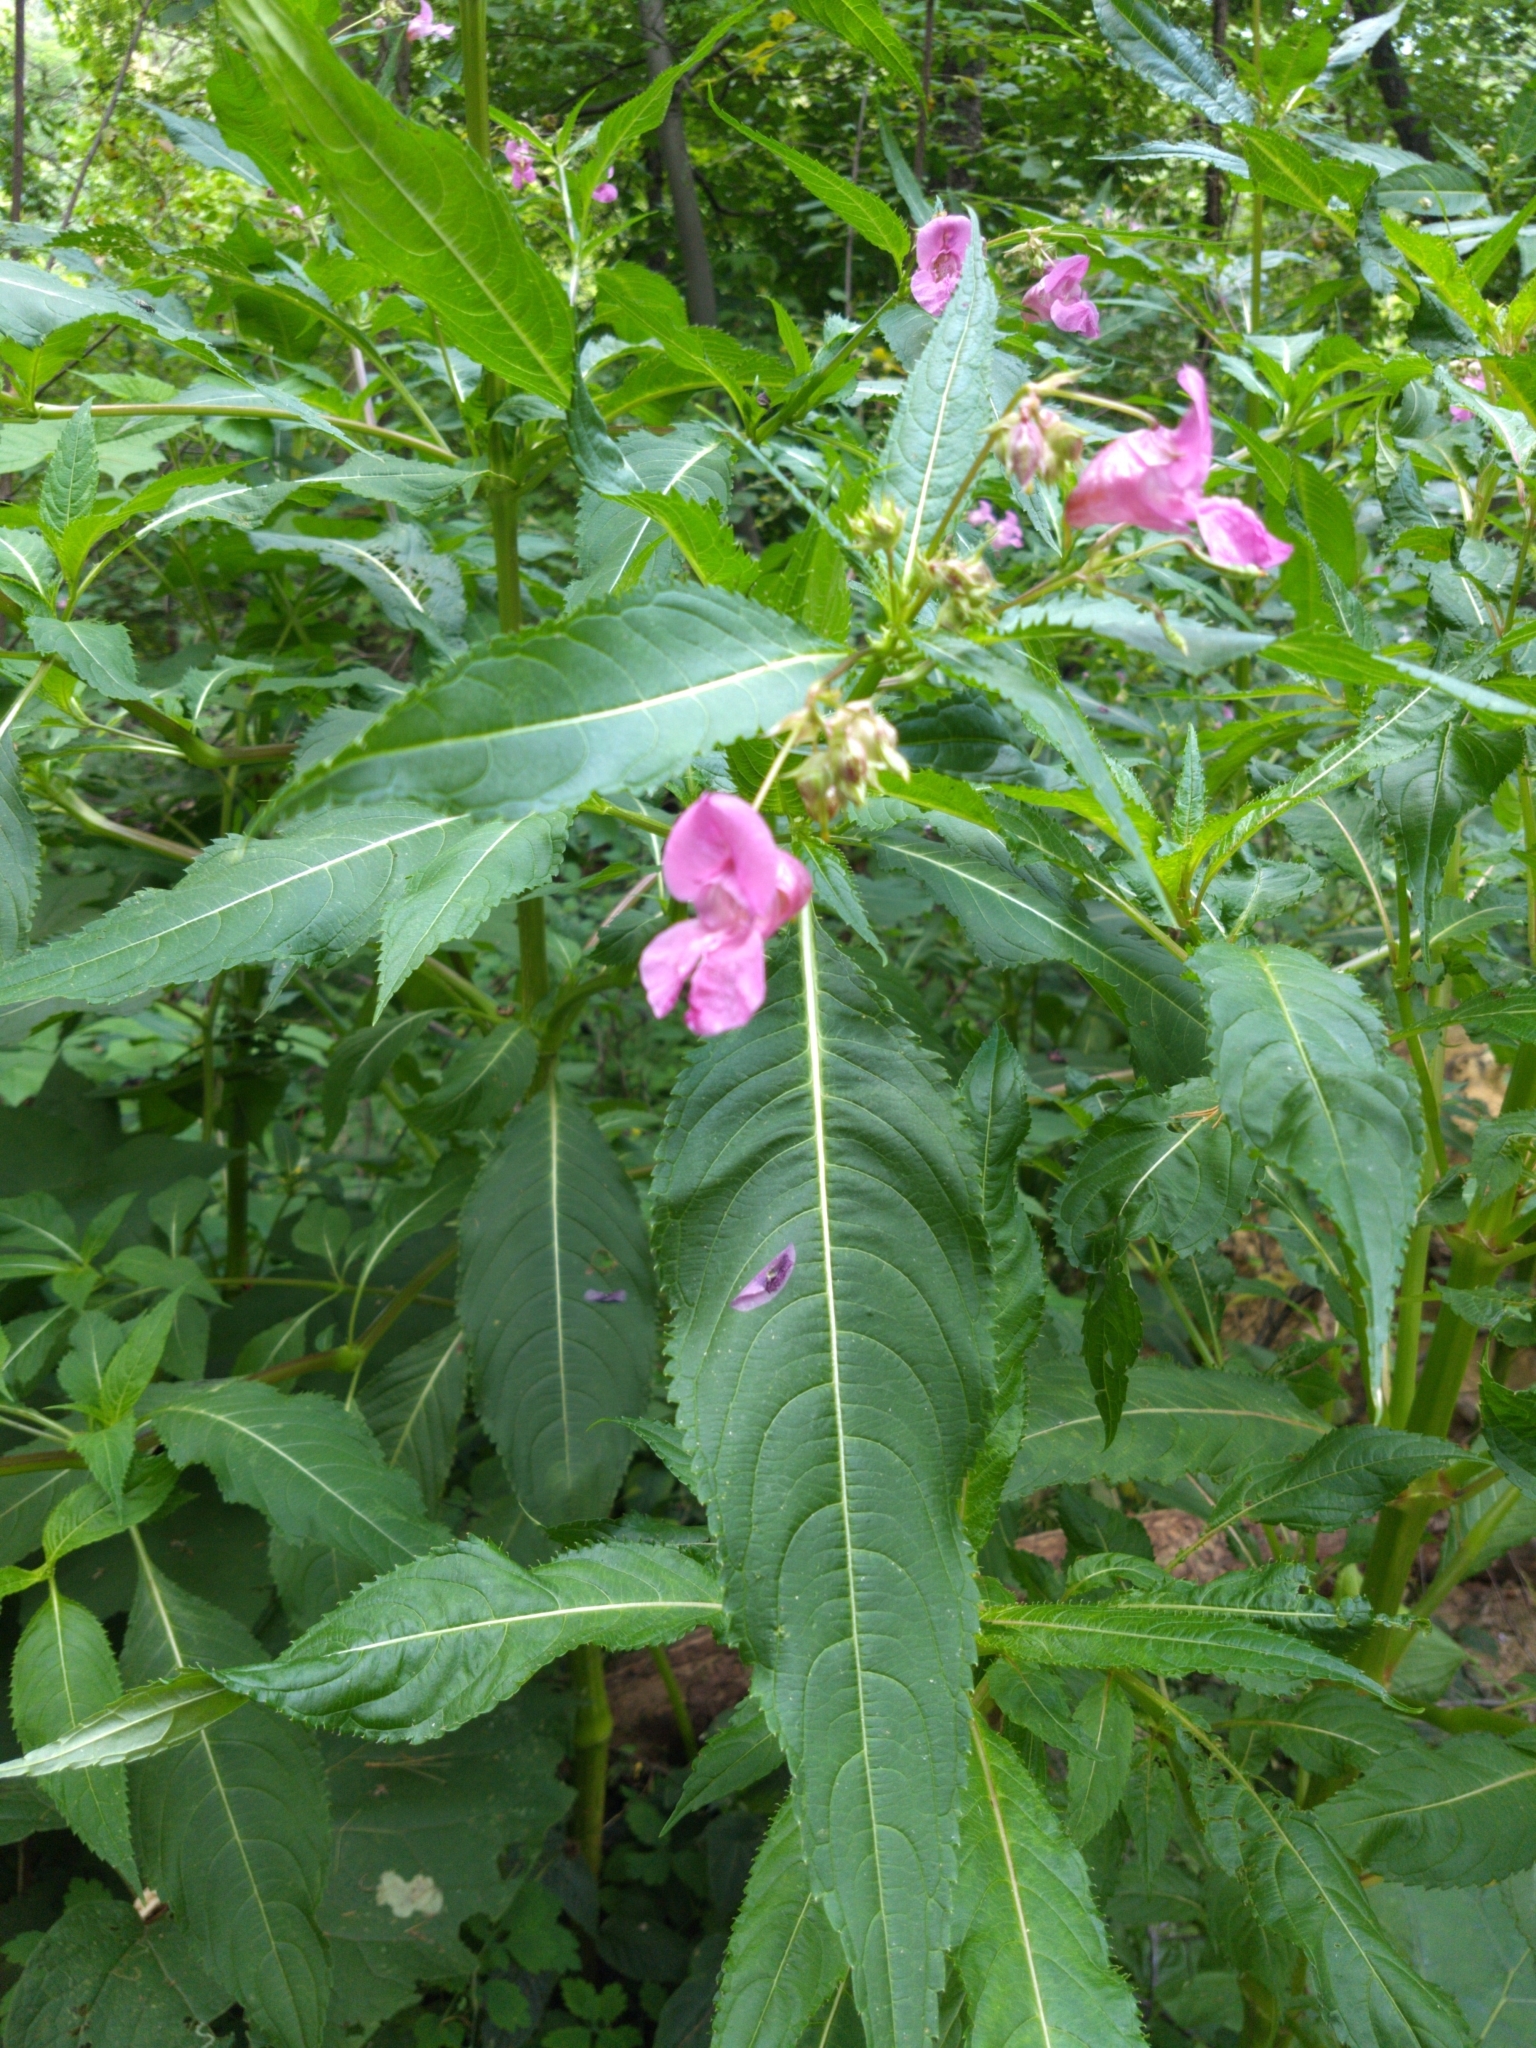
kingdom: Plantae
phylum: Tracheophyta
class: Magnoliopsida
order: Ericales
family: Balsaminaceae
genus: Impatiens
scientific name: Impatiens glandulifera
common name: Himalayan balsam
